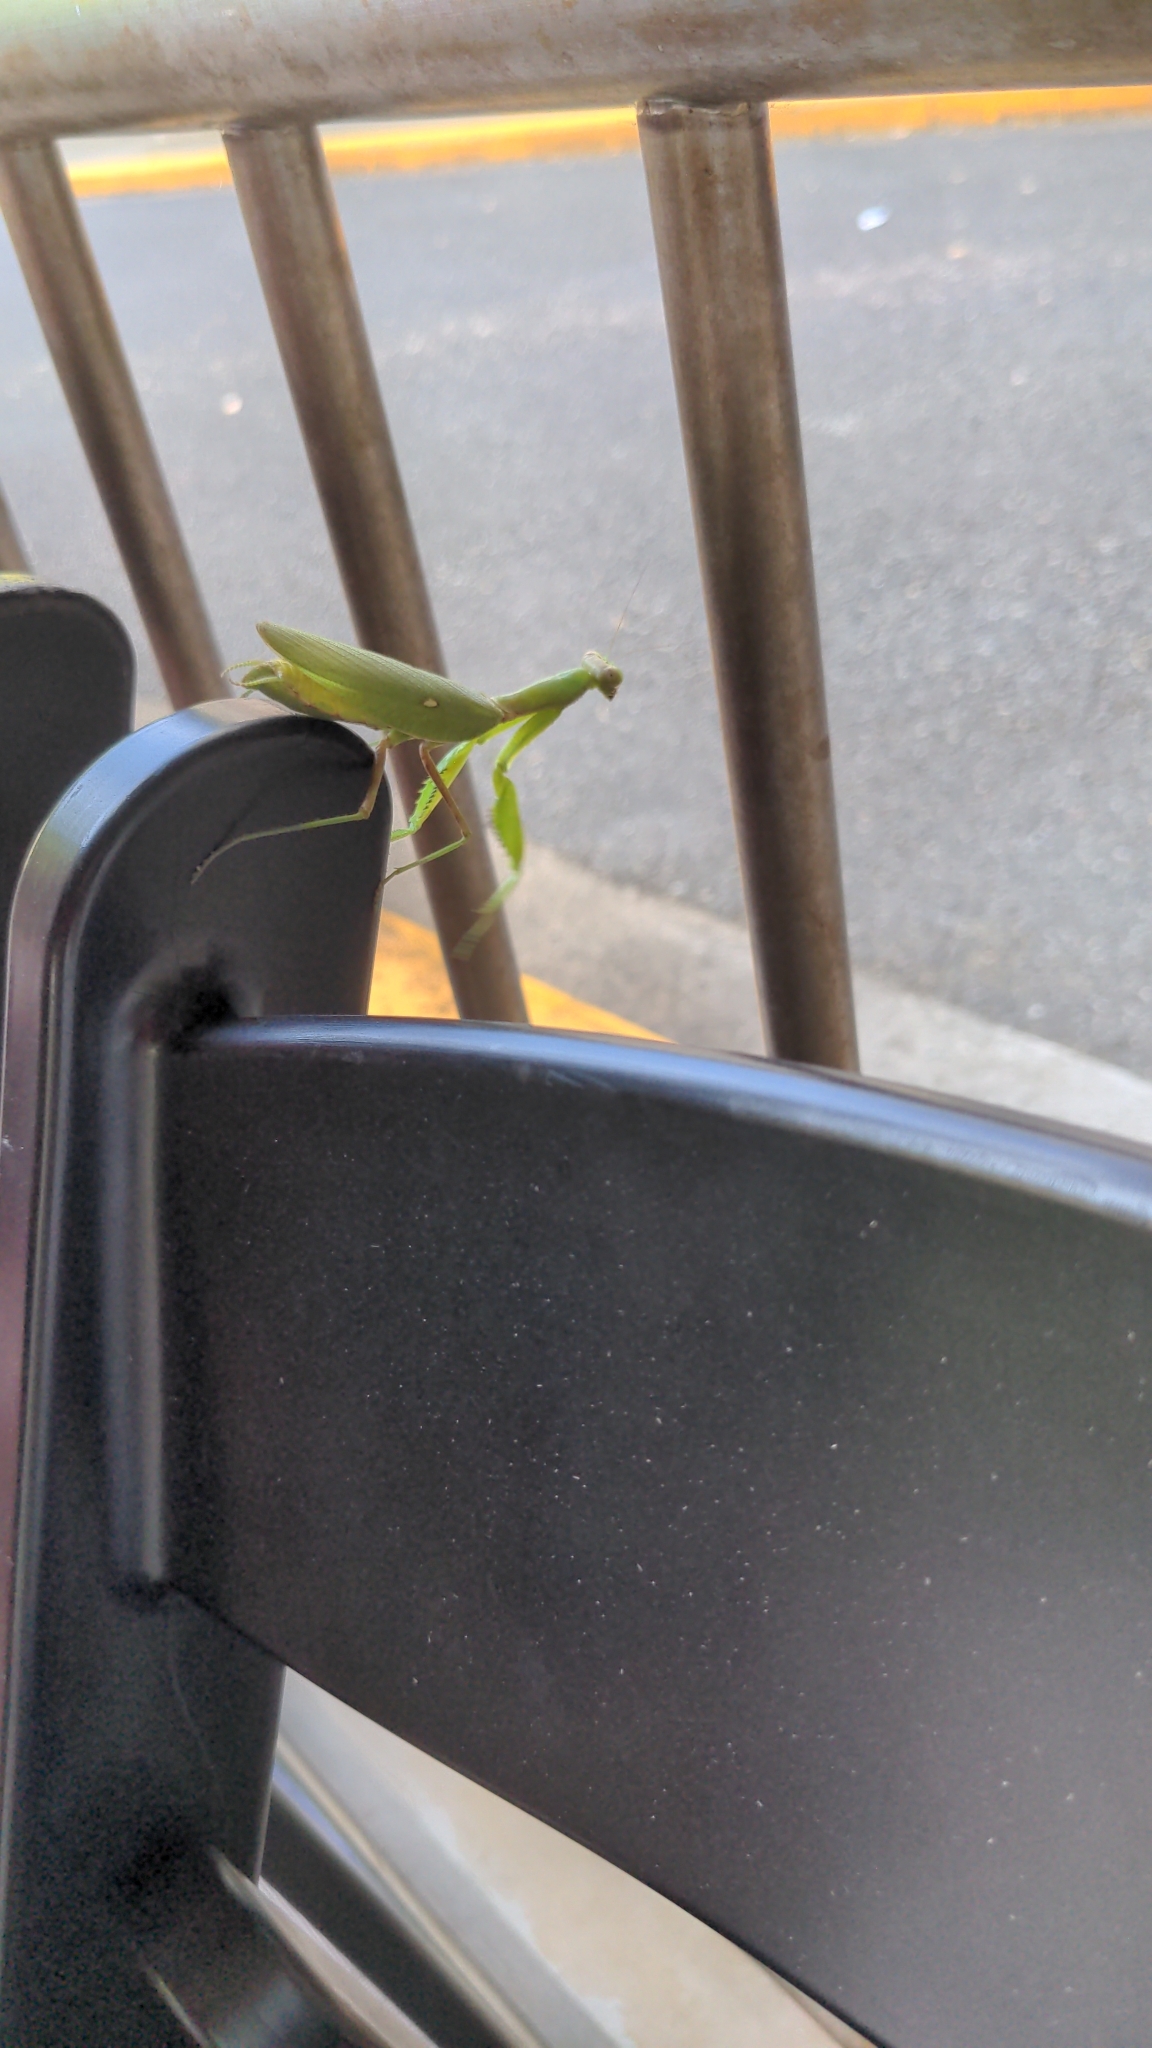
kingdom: Animalia
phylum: Arthropoda
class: Insecta
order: Mantodea
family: Mantidae
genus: Hierodula
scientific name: Hierodula patellifera
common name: Asian mantis
